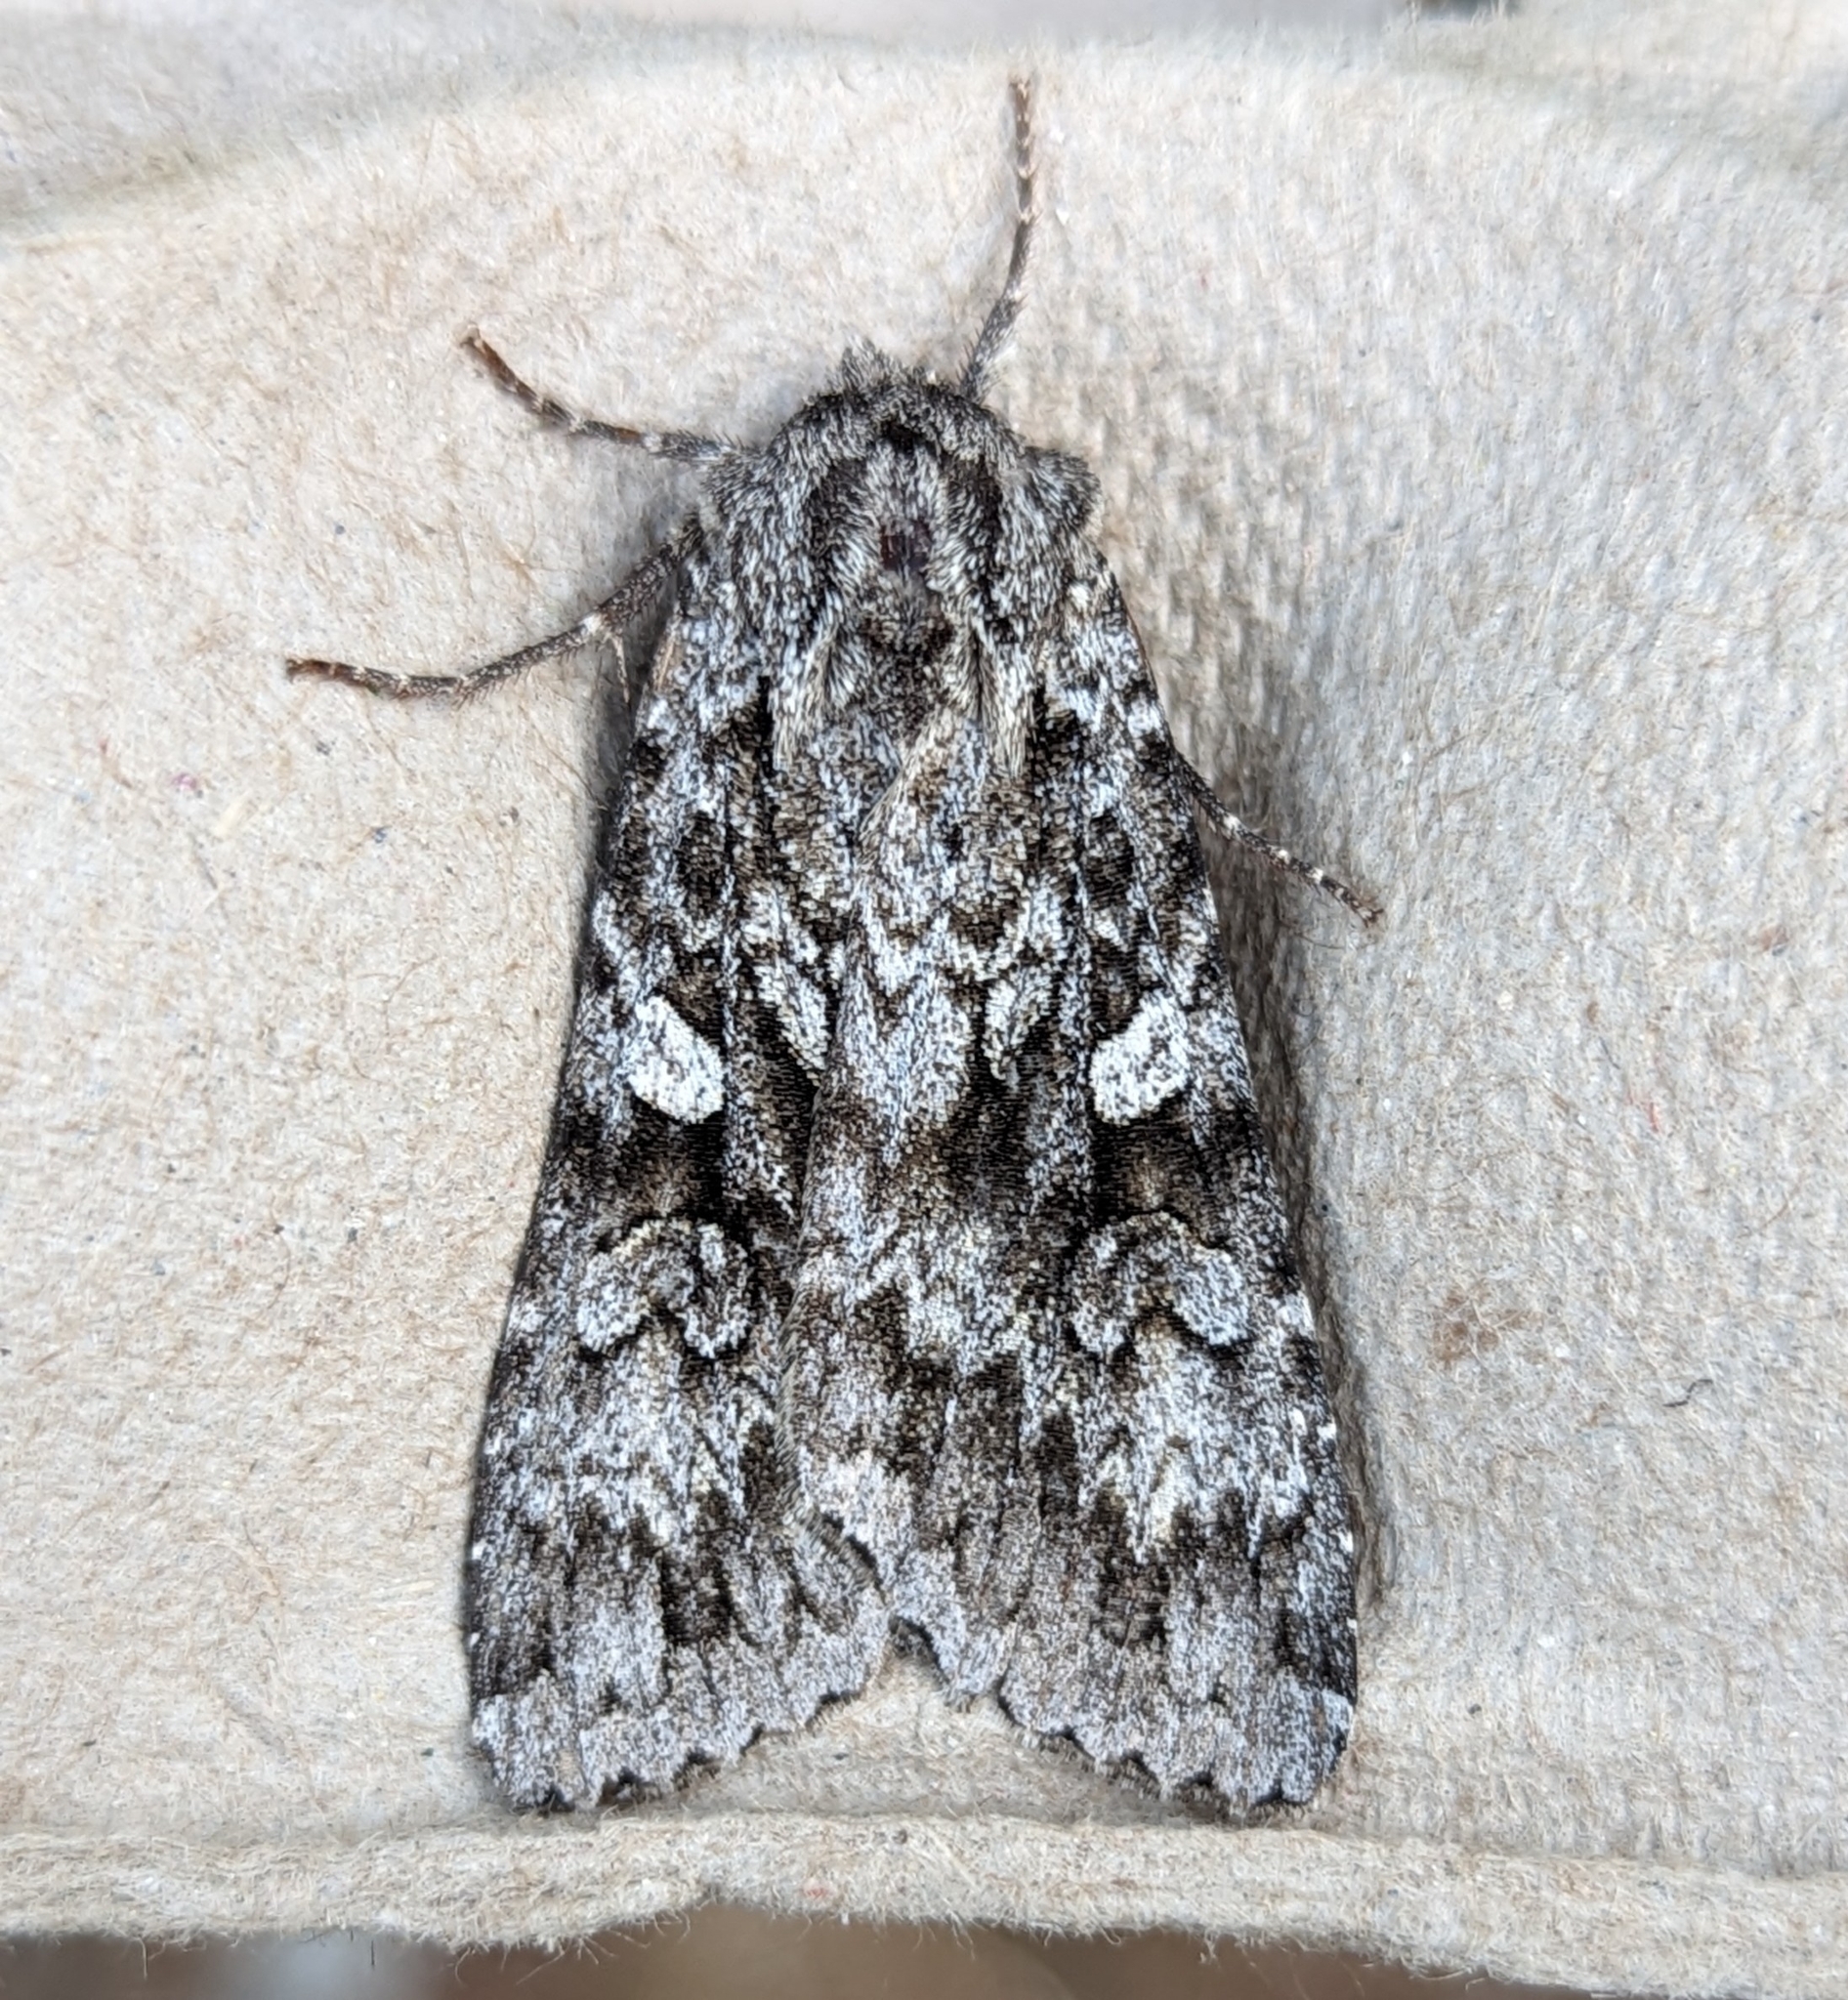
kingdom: Animalia
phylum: Arthropoda
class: Insecta
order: Lepidoptera
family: Noctuidae
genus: Eurois
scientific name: Eurois occulta
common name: Great brocade
